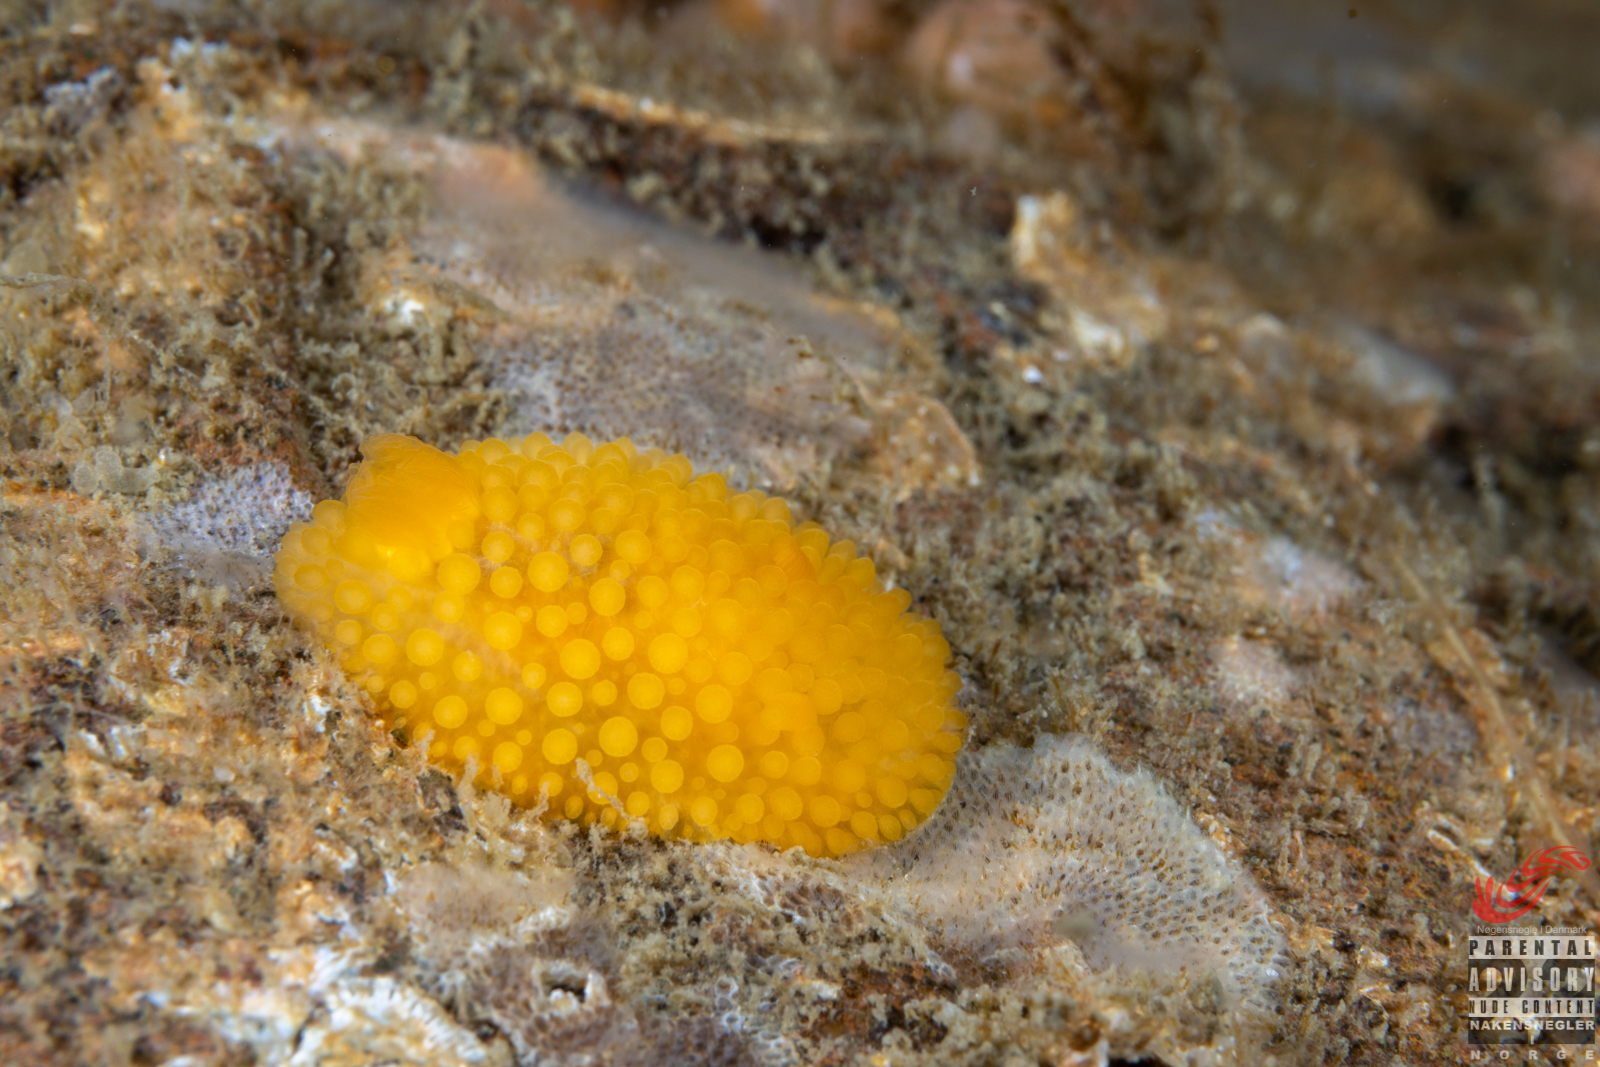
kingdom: Animalia
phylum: Mollusca
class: Gastropoda
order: Nudibranchia
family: Onchidorididae
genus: Adalaria
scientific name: Adalaria loveni
